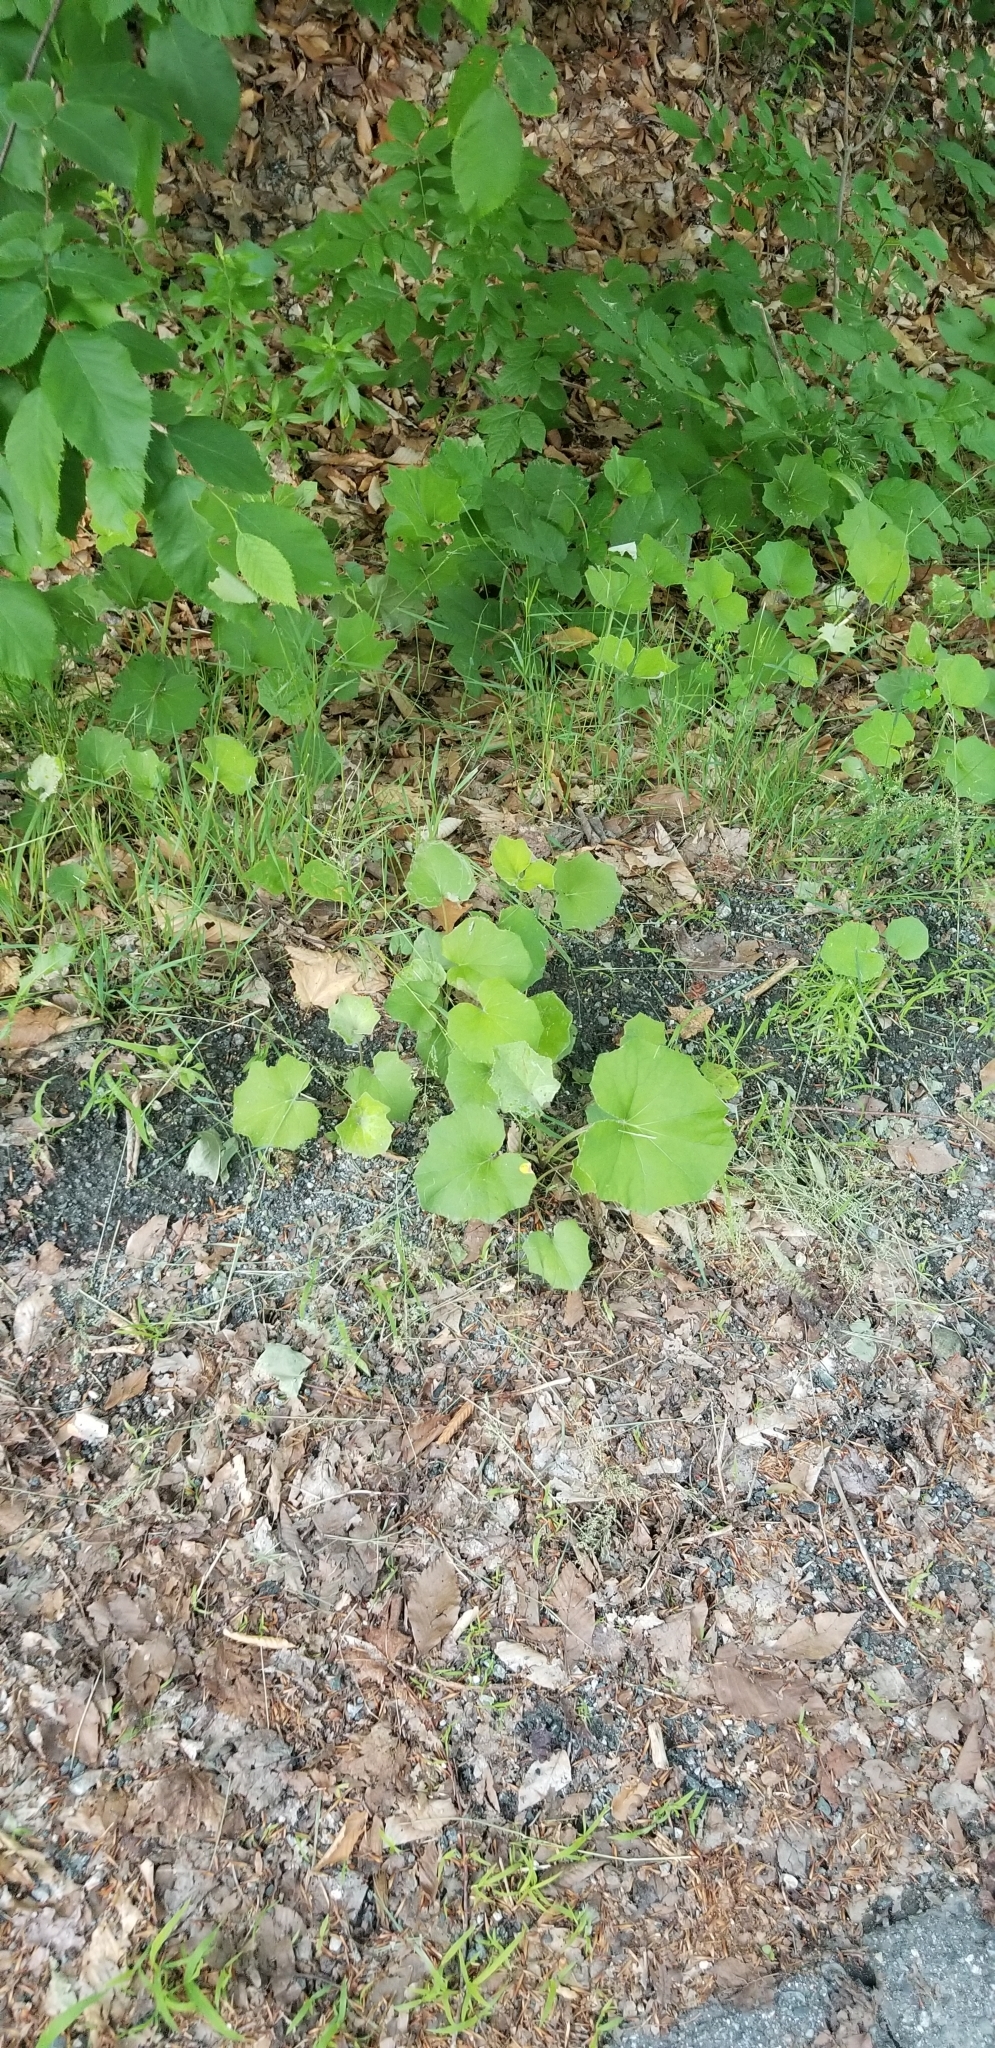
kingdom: Plantae
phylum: Tracheophyta
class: Magnoliopsida
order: Asterales
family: Asteraceae
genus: Tussilago
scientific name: Tussilago farfara
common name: Coltsfoot
